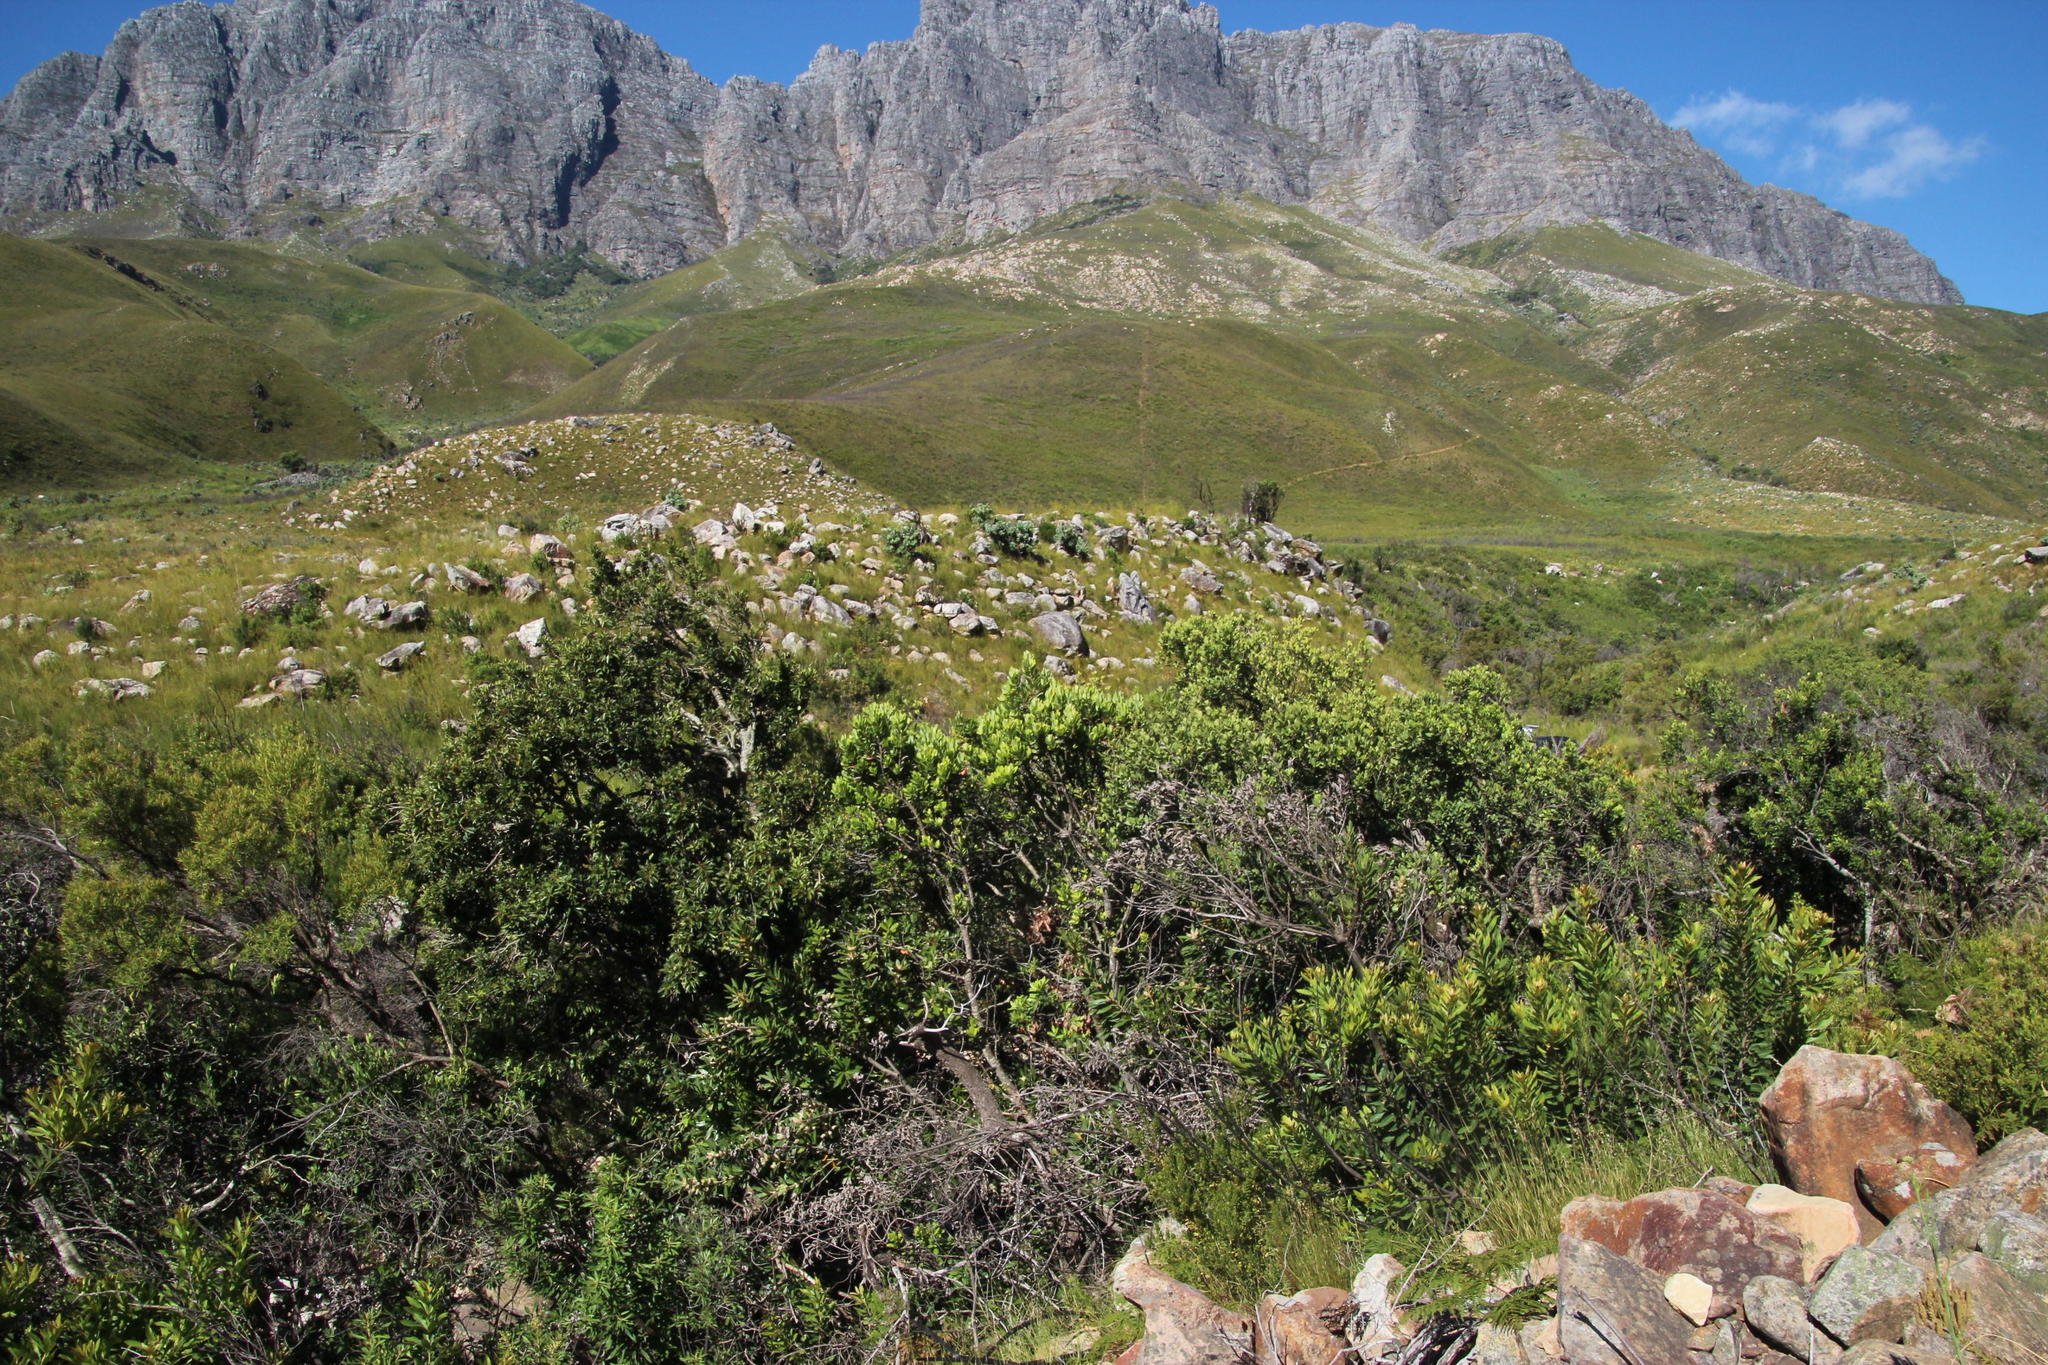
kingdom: Plantae
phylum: Tracheophyta
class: Magnoliopsida
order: Sapindales
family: Anacardiaceae
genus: Heeria
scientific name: Heeria argentea
